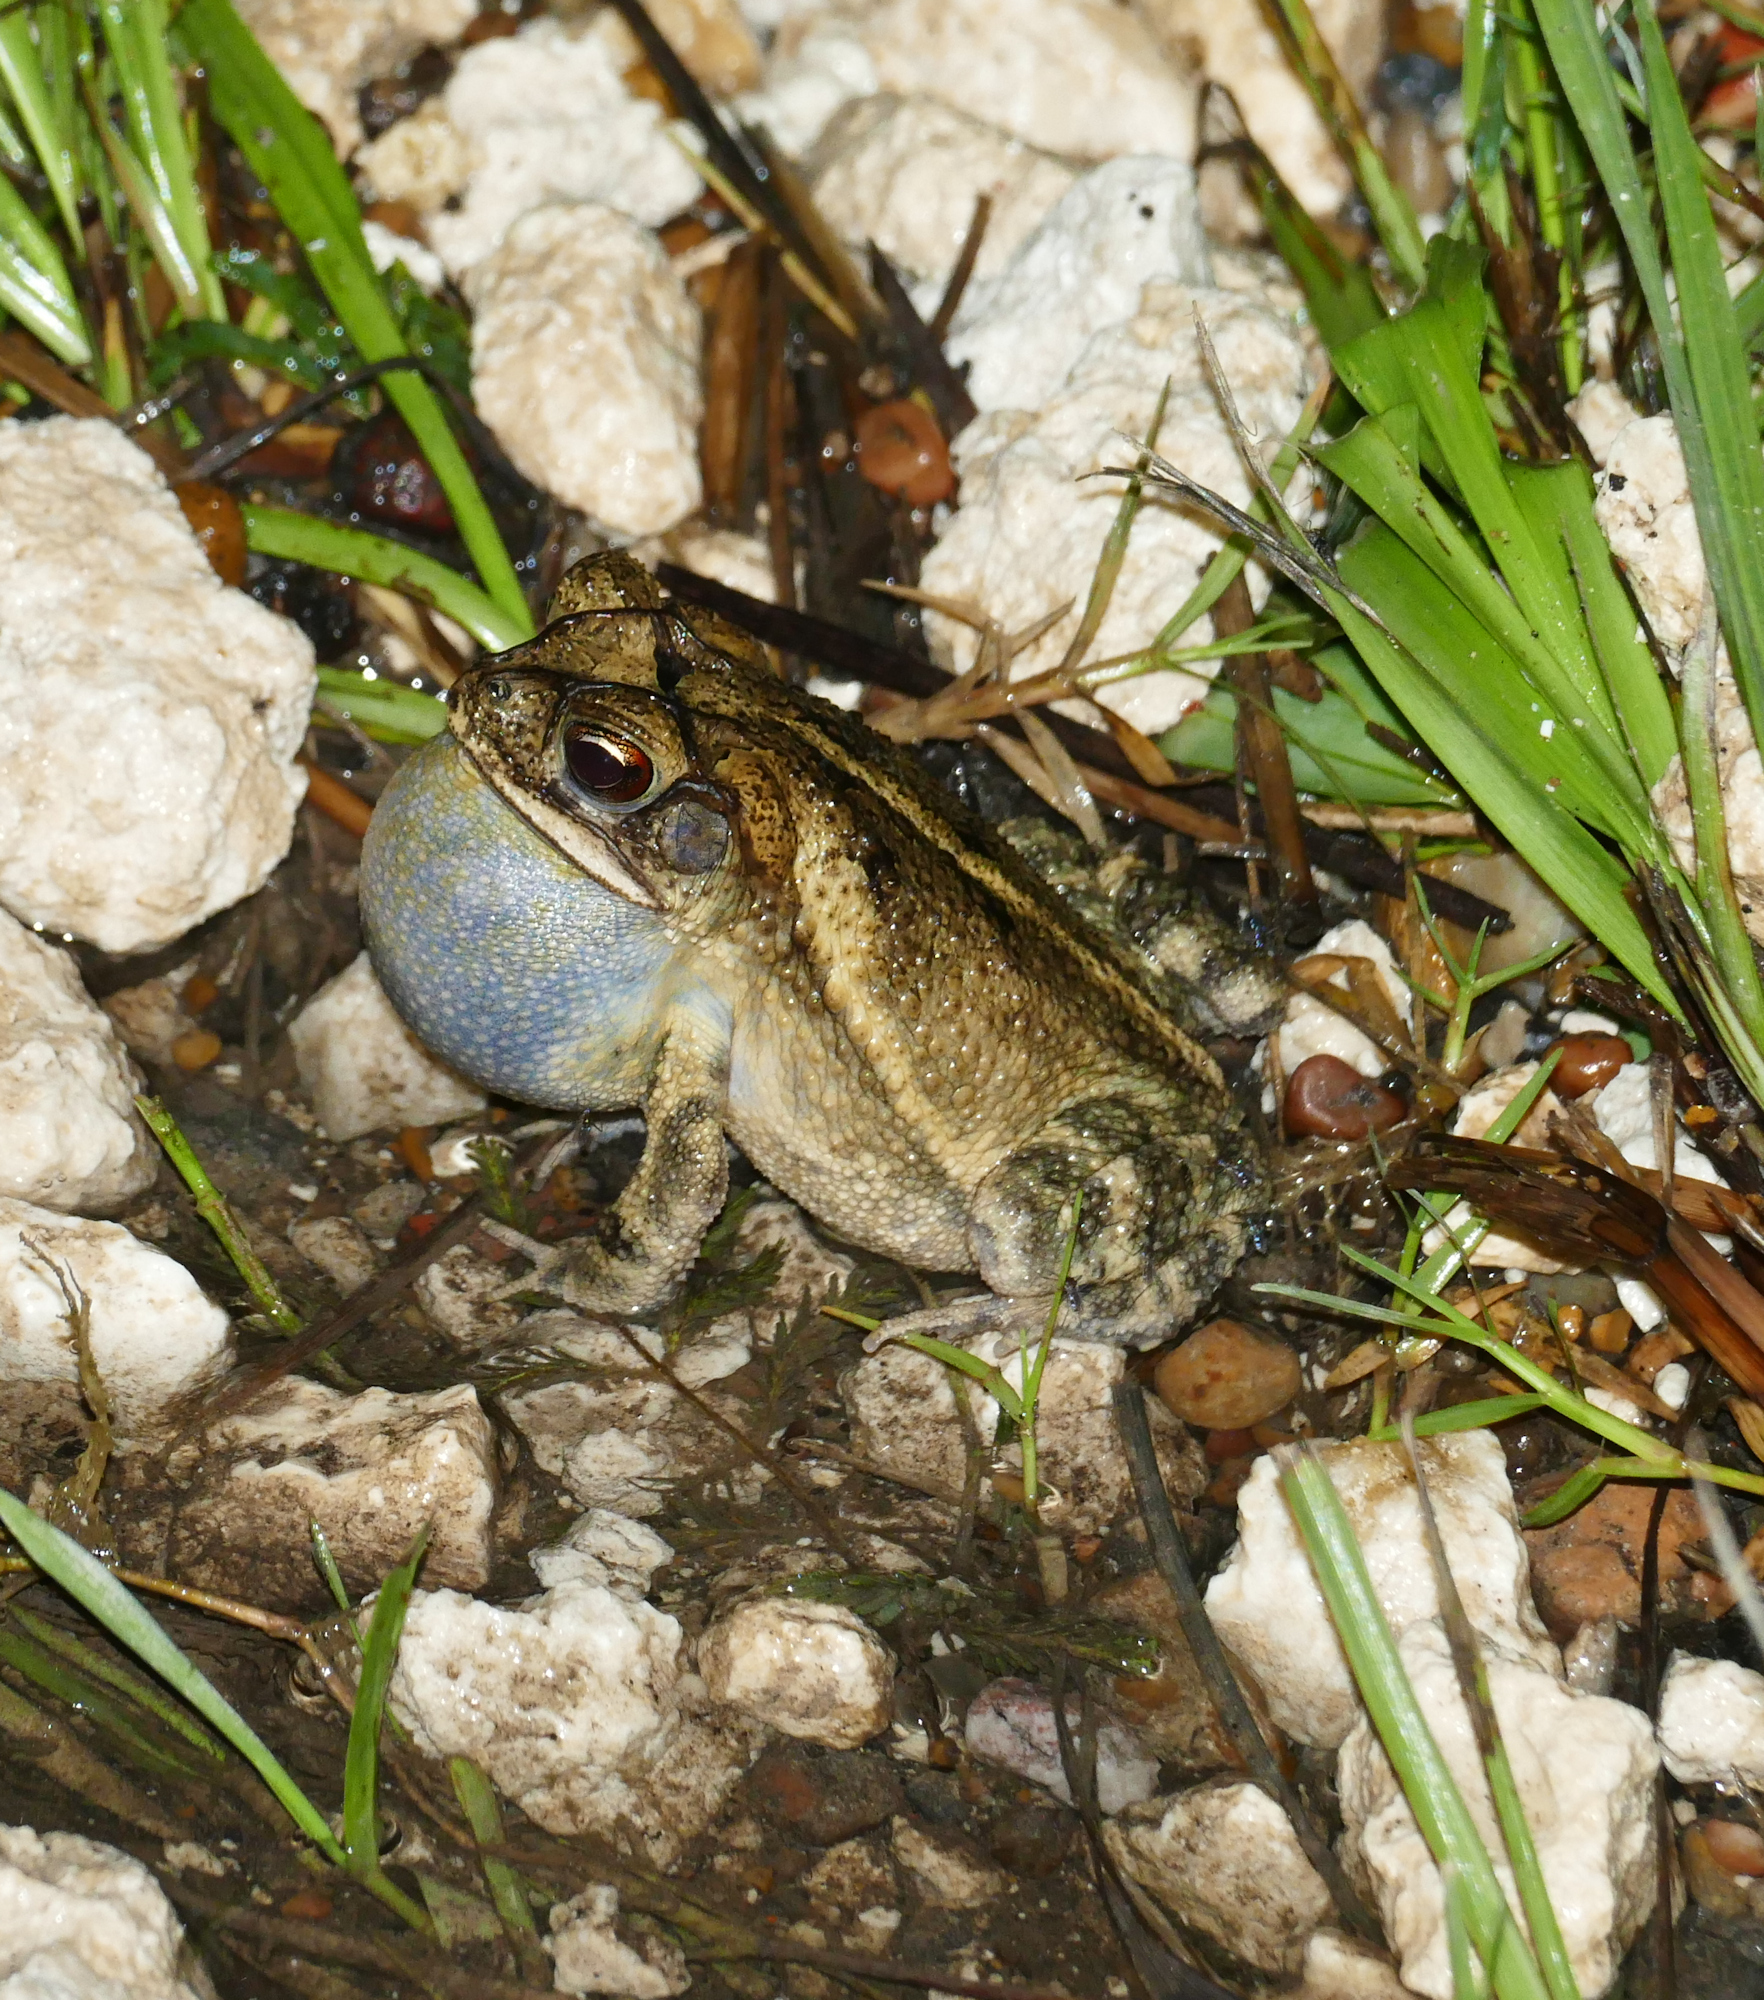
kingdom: Animalia
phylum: Chordata
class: Amphibia
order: Anura
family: Bufonidae
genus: Incilius
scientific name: Incilius nebulifer
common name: Gulf coast toad
